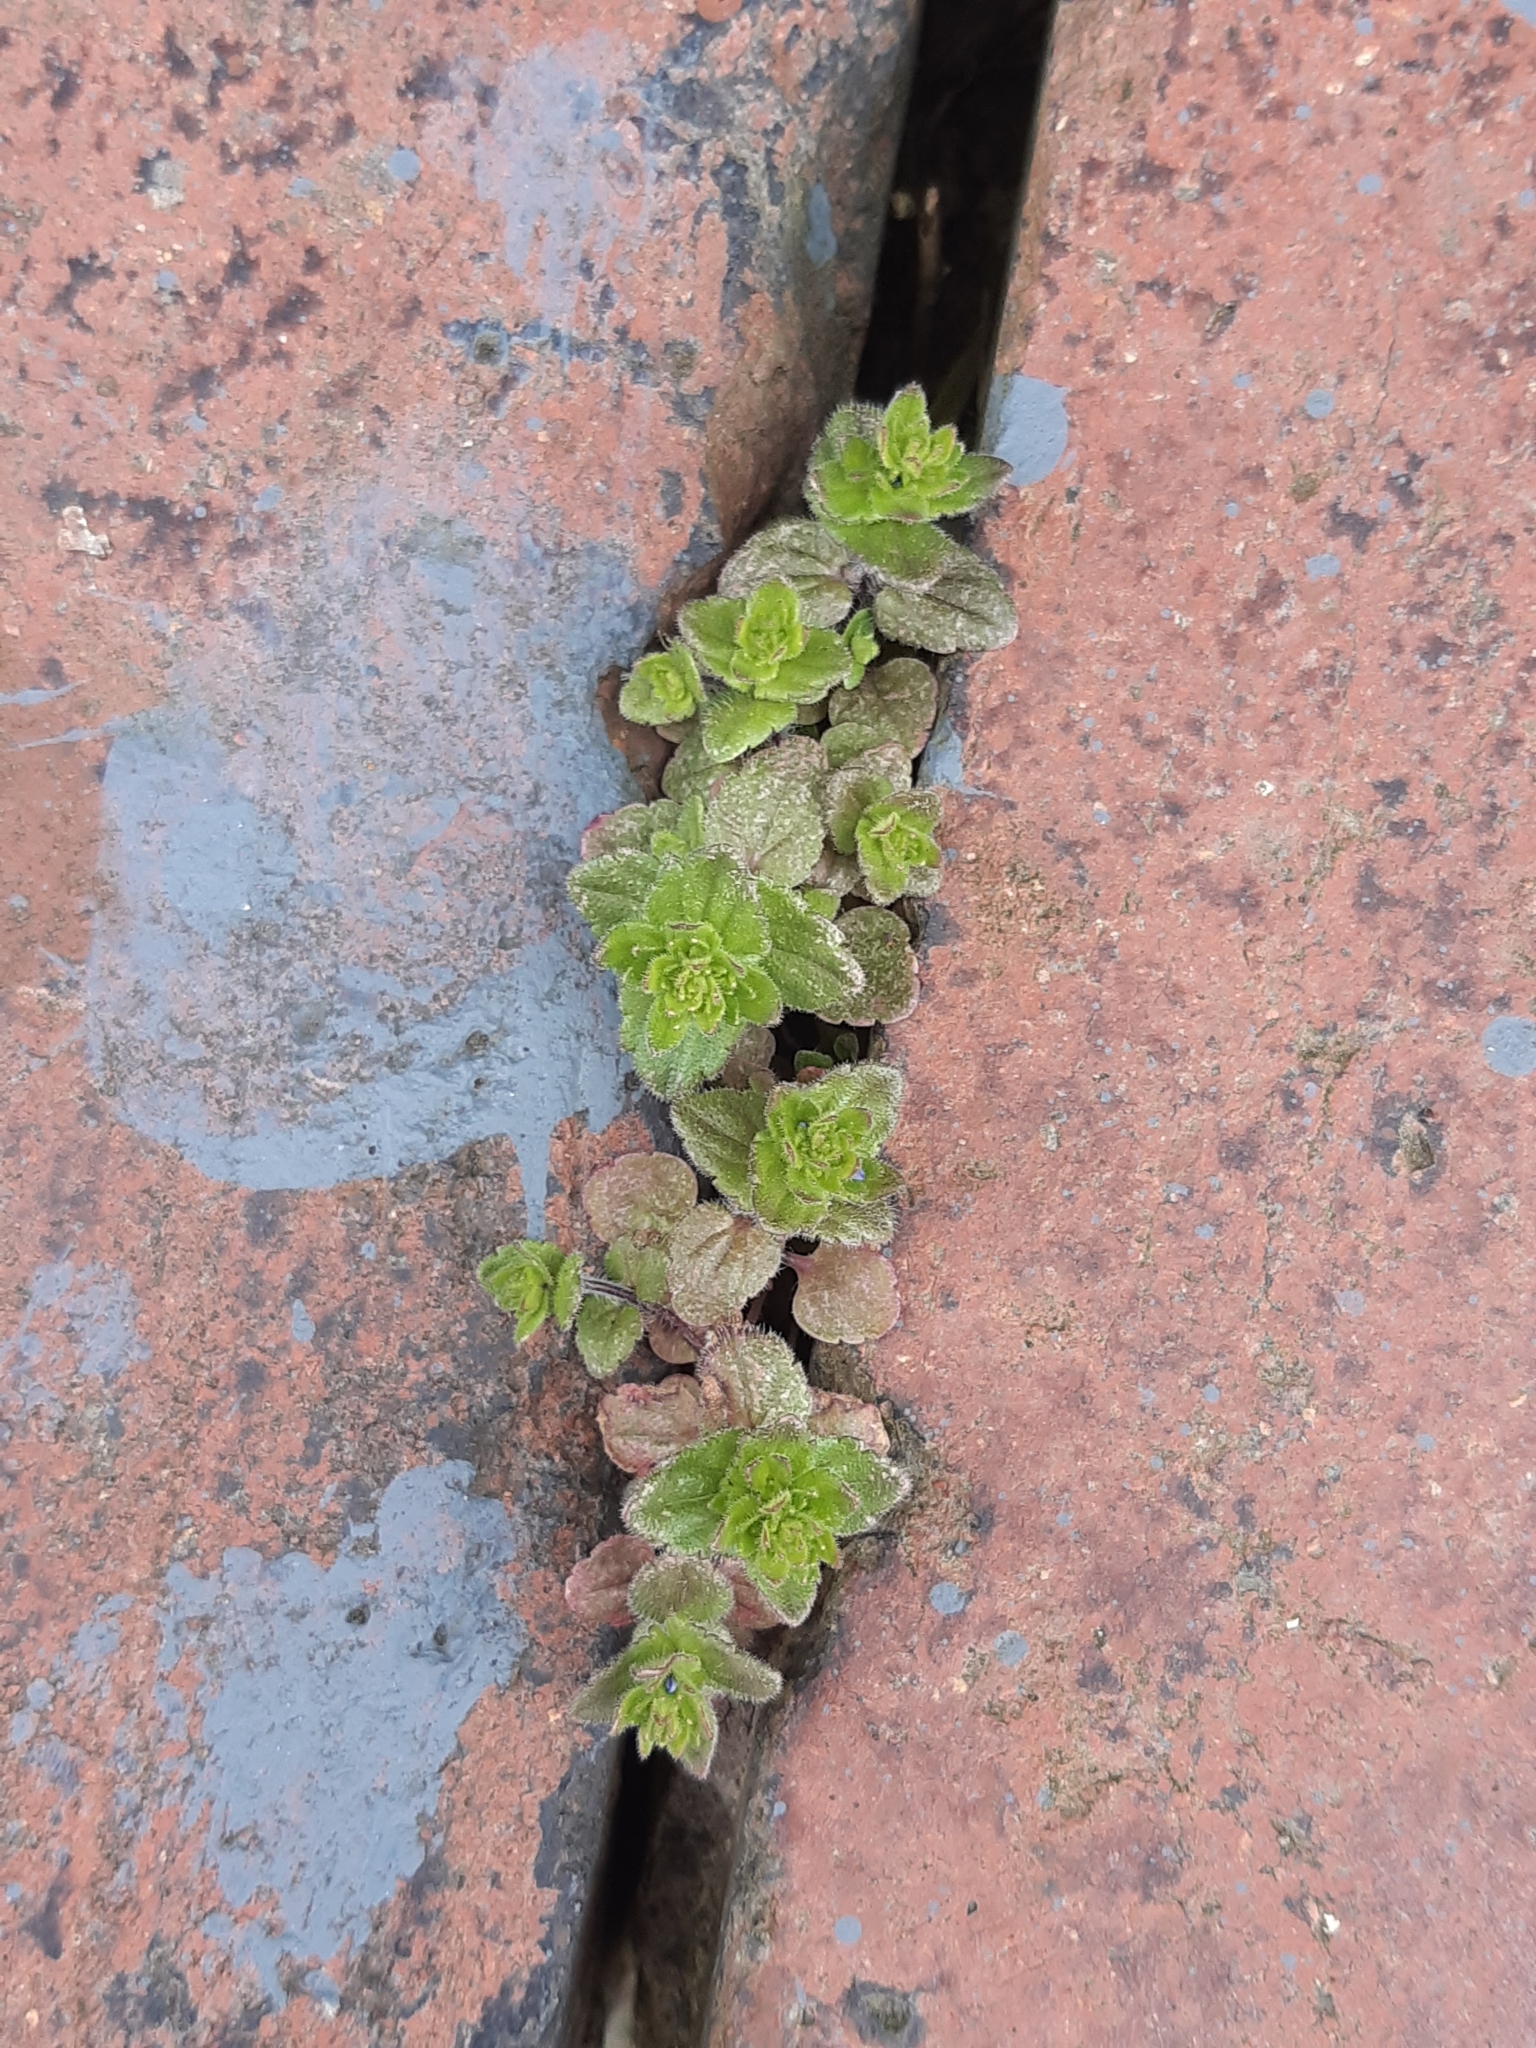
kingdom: Plantae
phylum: Tracheophyta
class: Magnoliopsida
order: Lamiales
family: Plantaginaceae
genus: Veronica
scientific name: Veronica arvensis
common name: Corn speedwell
